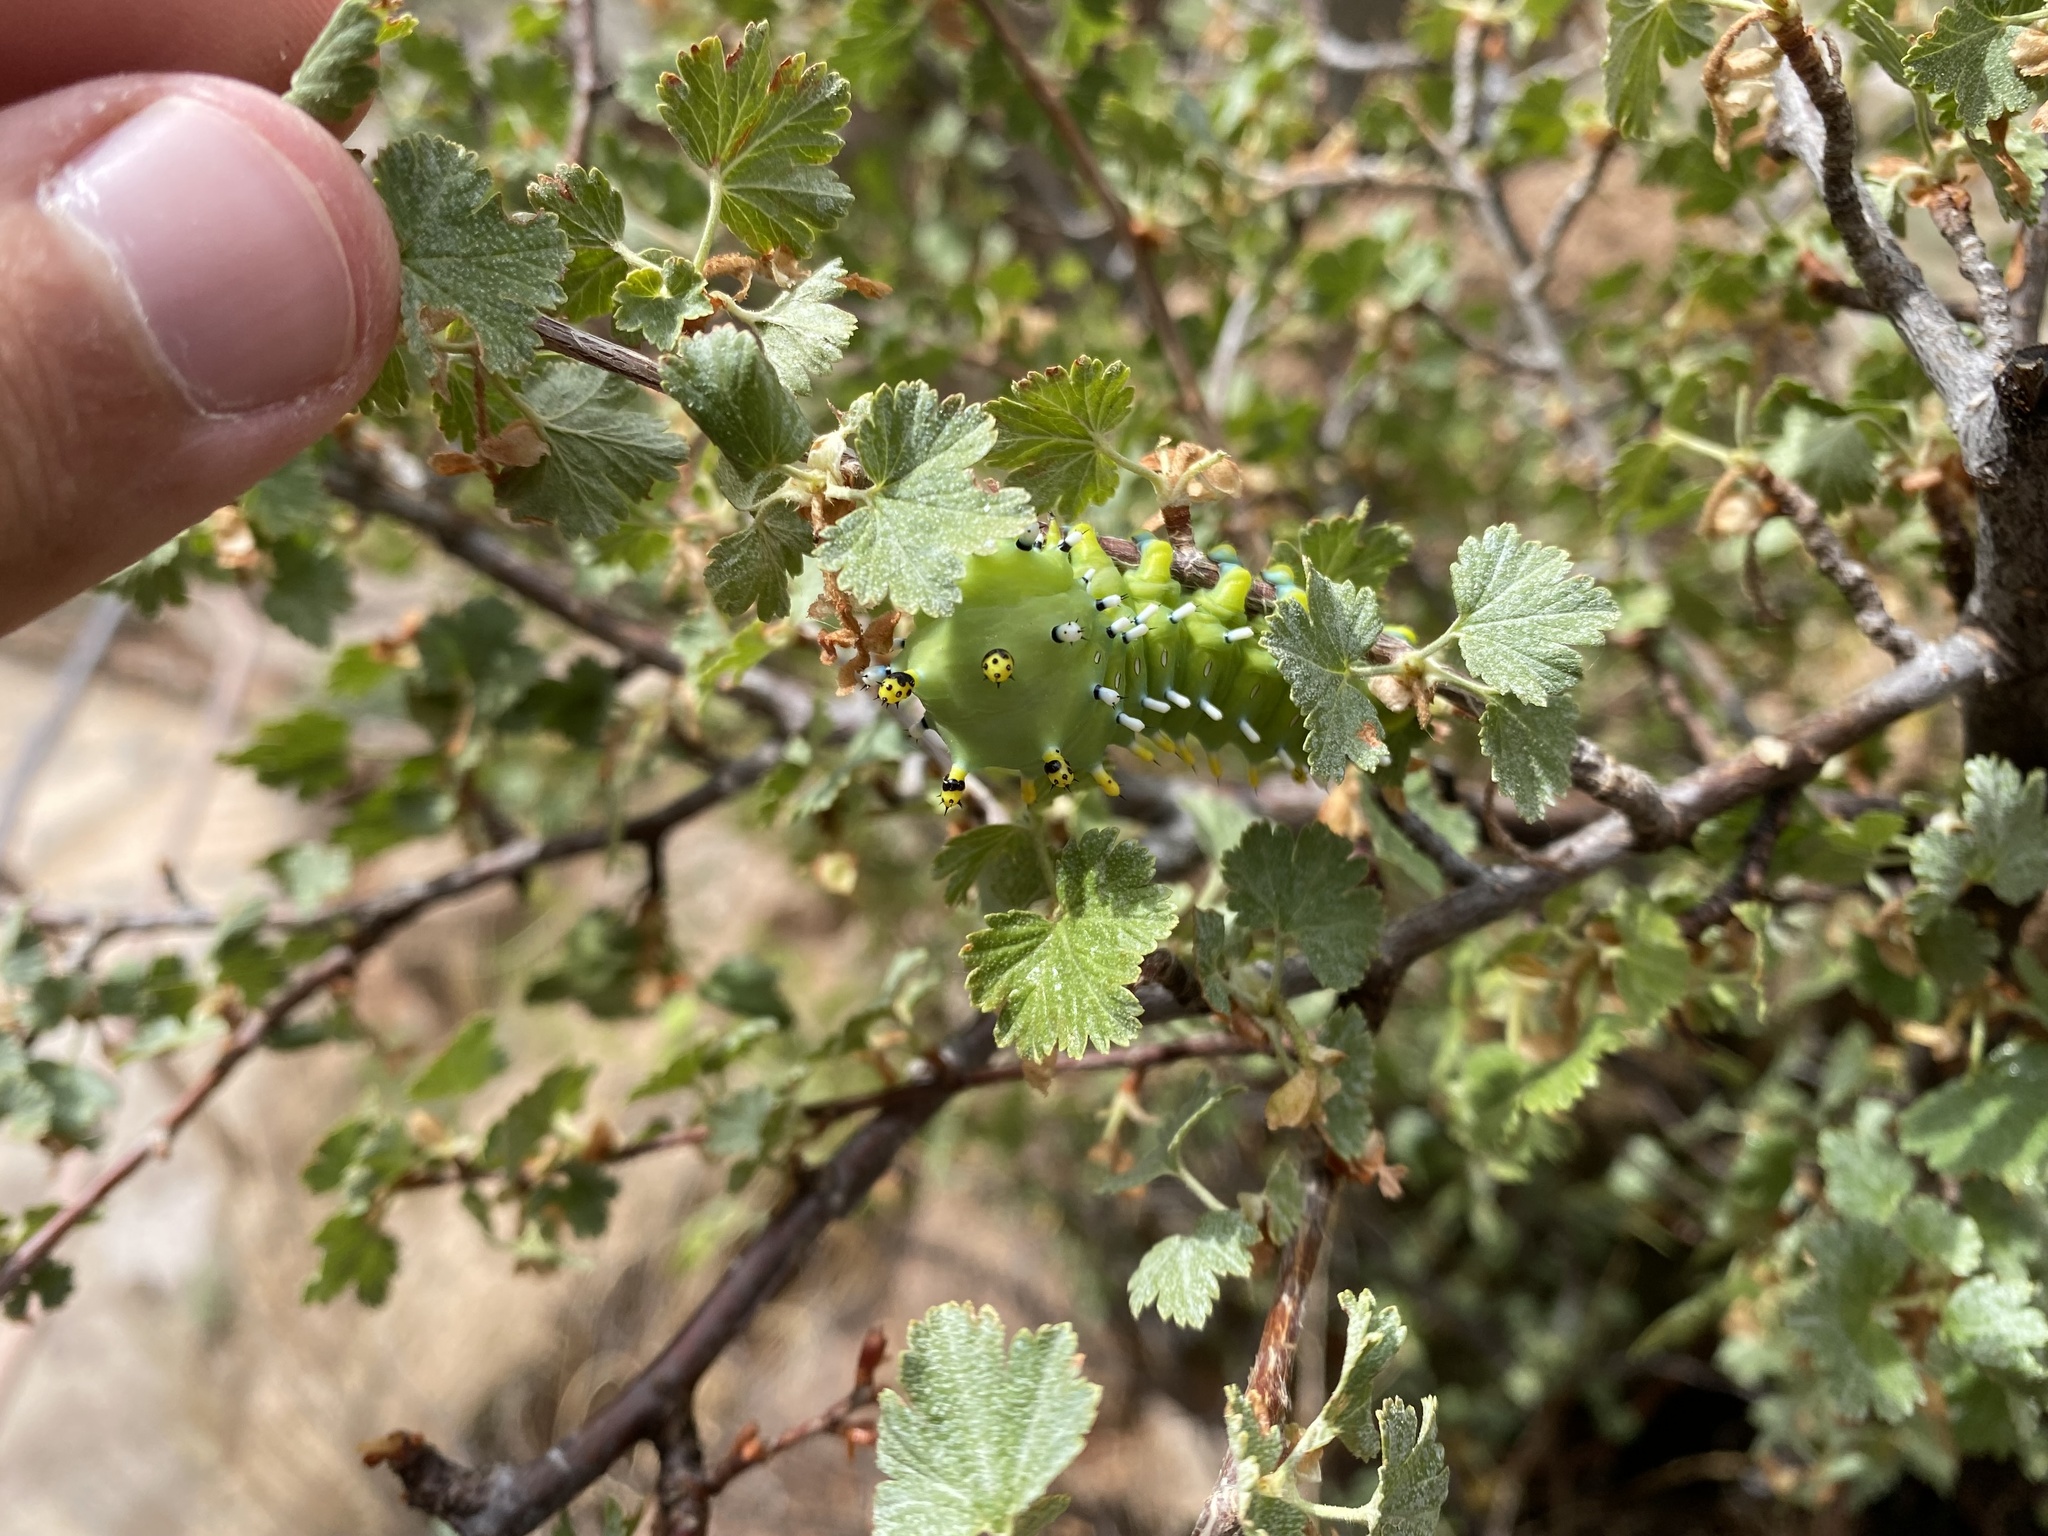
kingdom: Animalia
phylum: Arthropoda
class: Insecta
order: Lepidoptera
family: Saturniidae
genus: Hyalophora
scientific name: Hyalophora gloveri
